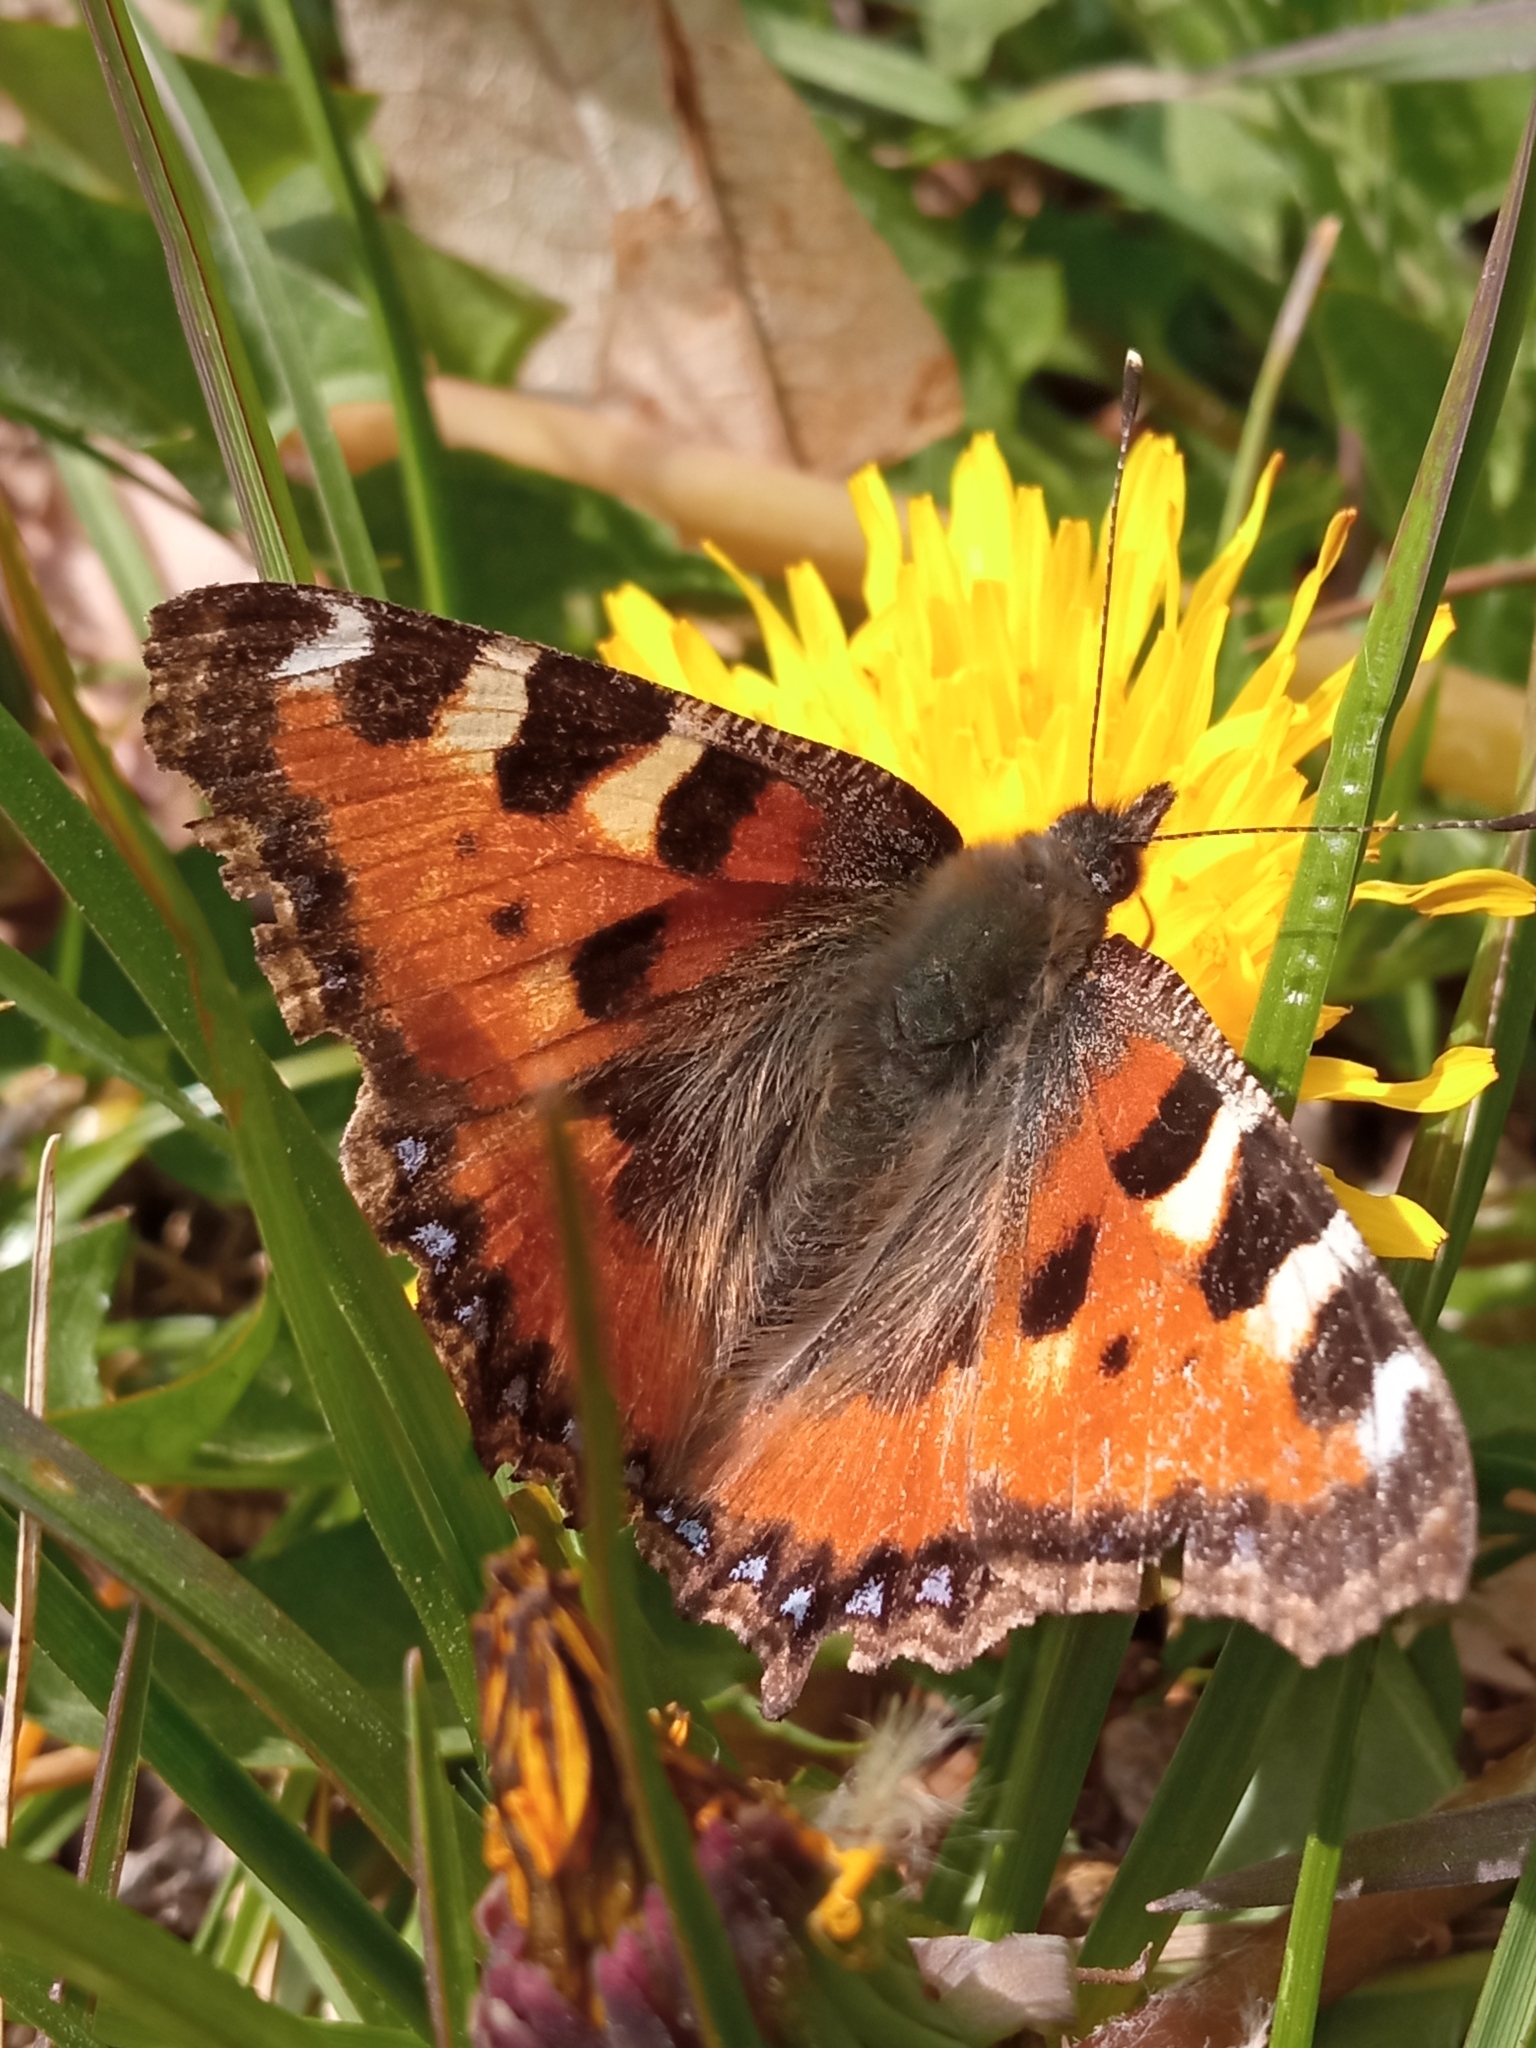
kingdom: Animalia
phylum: Arthropoda
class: Insecta
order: Lepidoptera
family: Nymphalidae
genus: Aglais
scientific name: Aglais urticae
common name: Small tortoiseshell
